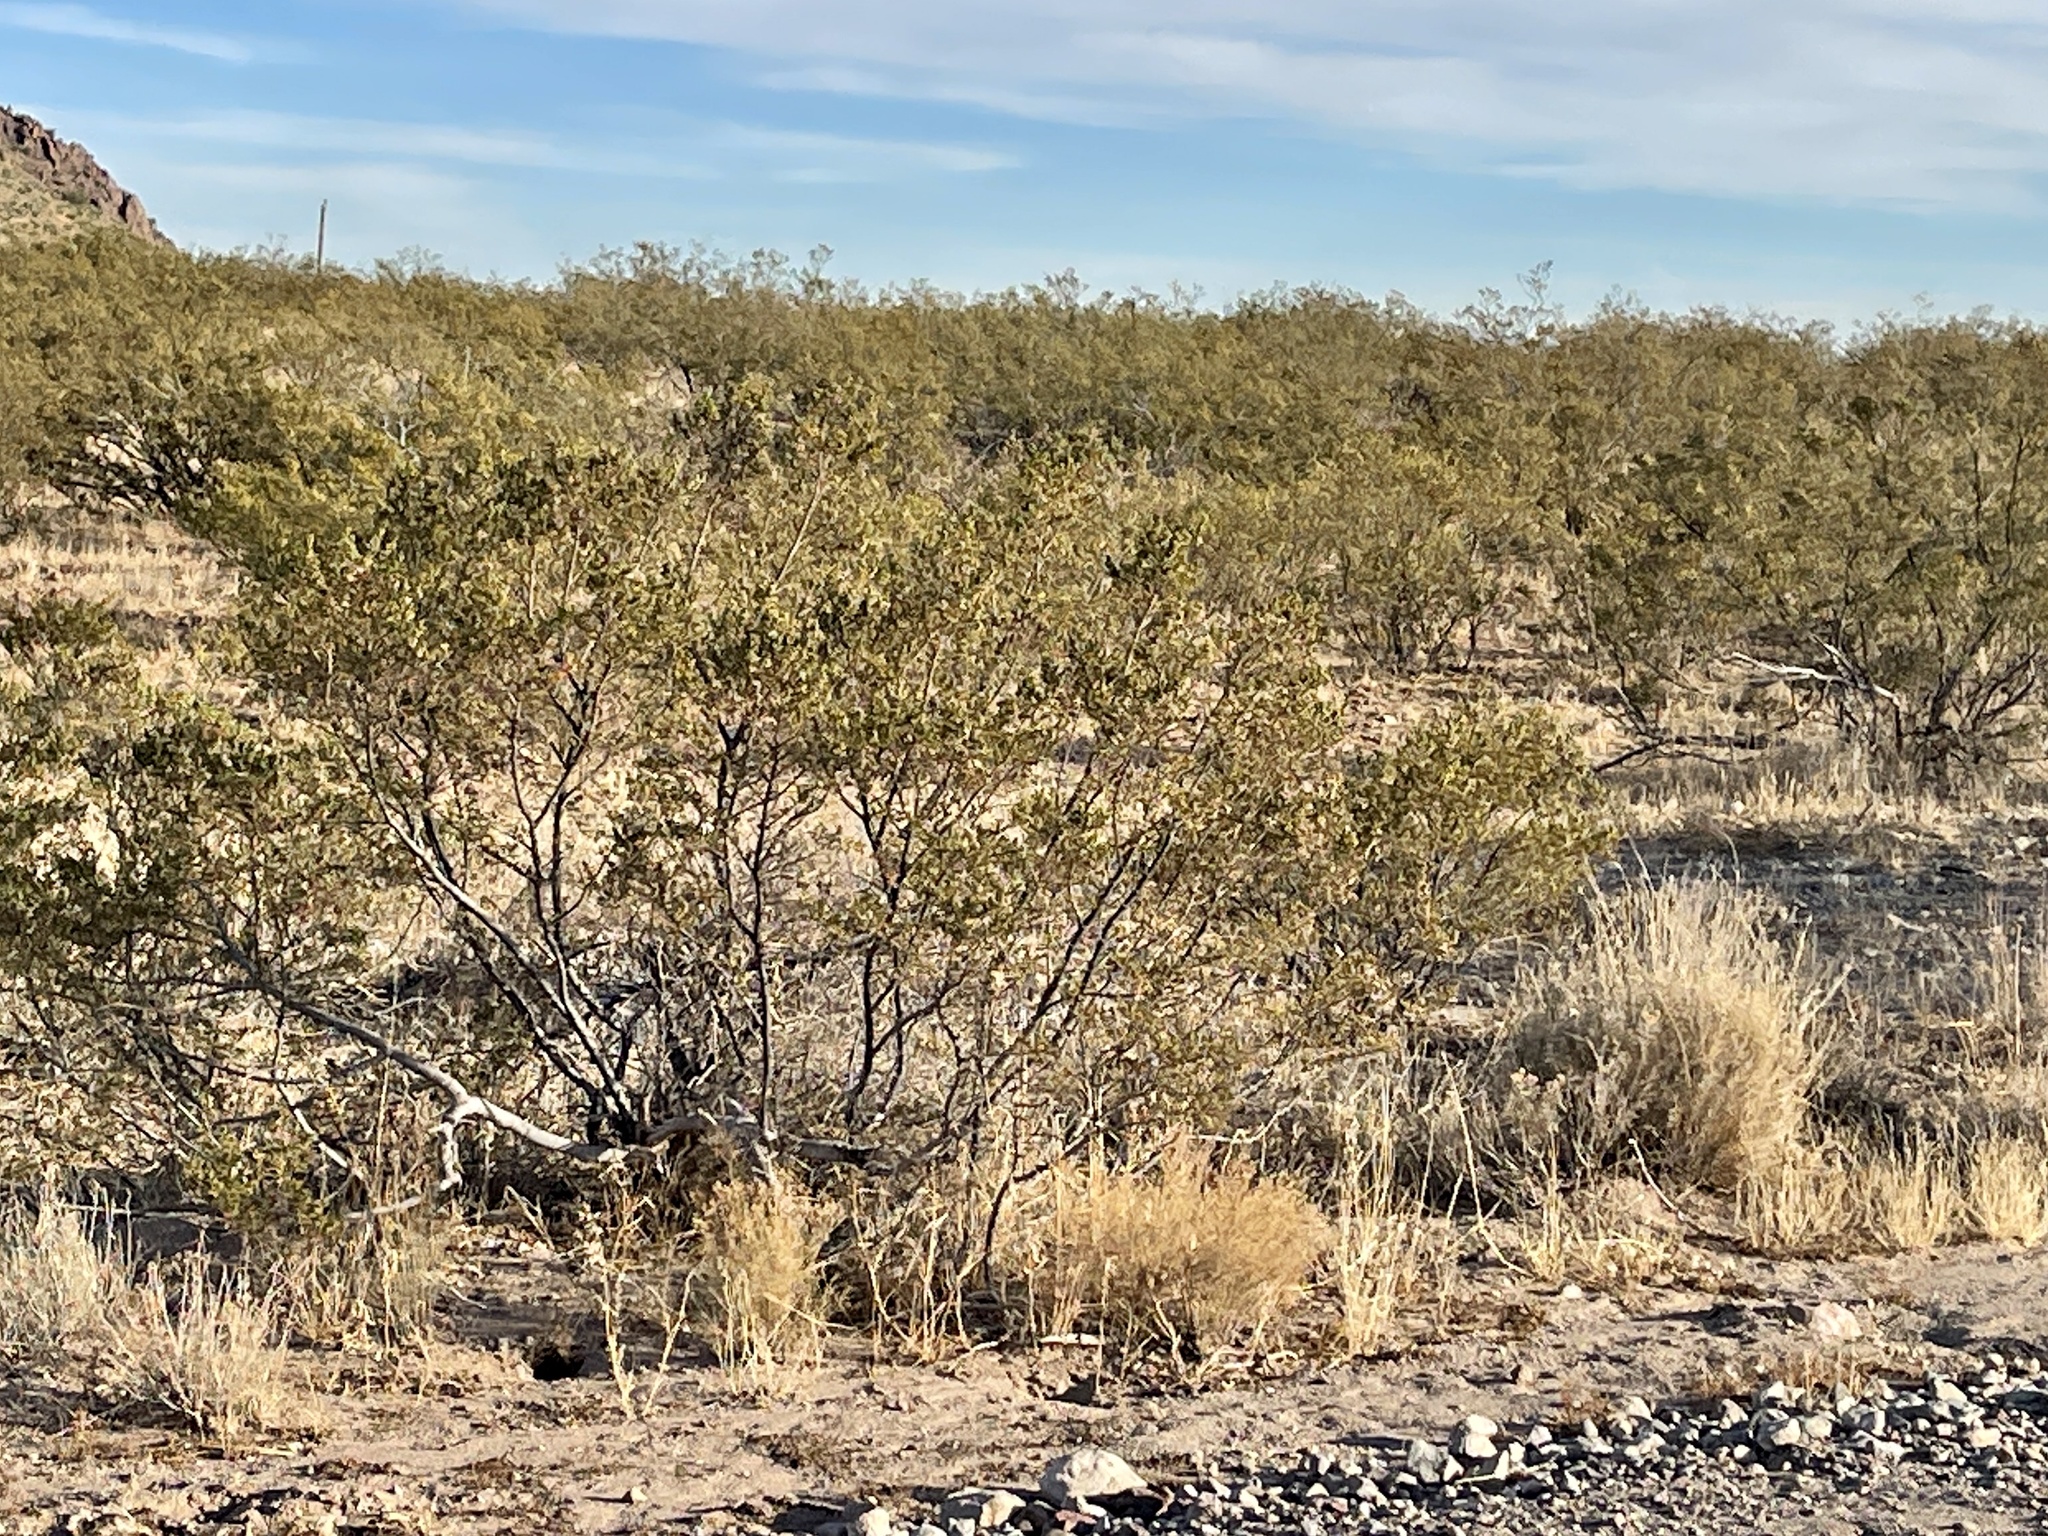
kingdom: Plantae
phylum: Tracheophyta
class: Magnoliopsida
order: Zygophyllales
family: Zygophyllaceae
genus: Larrea
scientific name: Larrea tridentata
